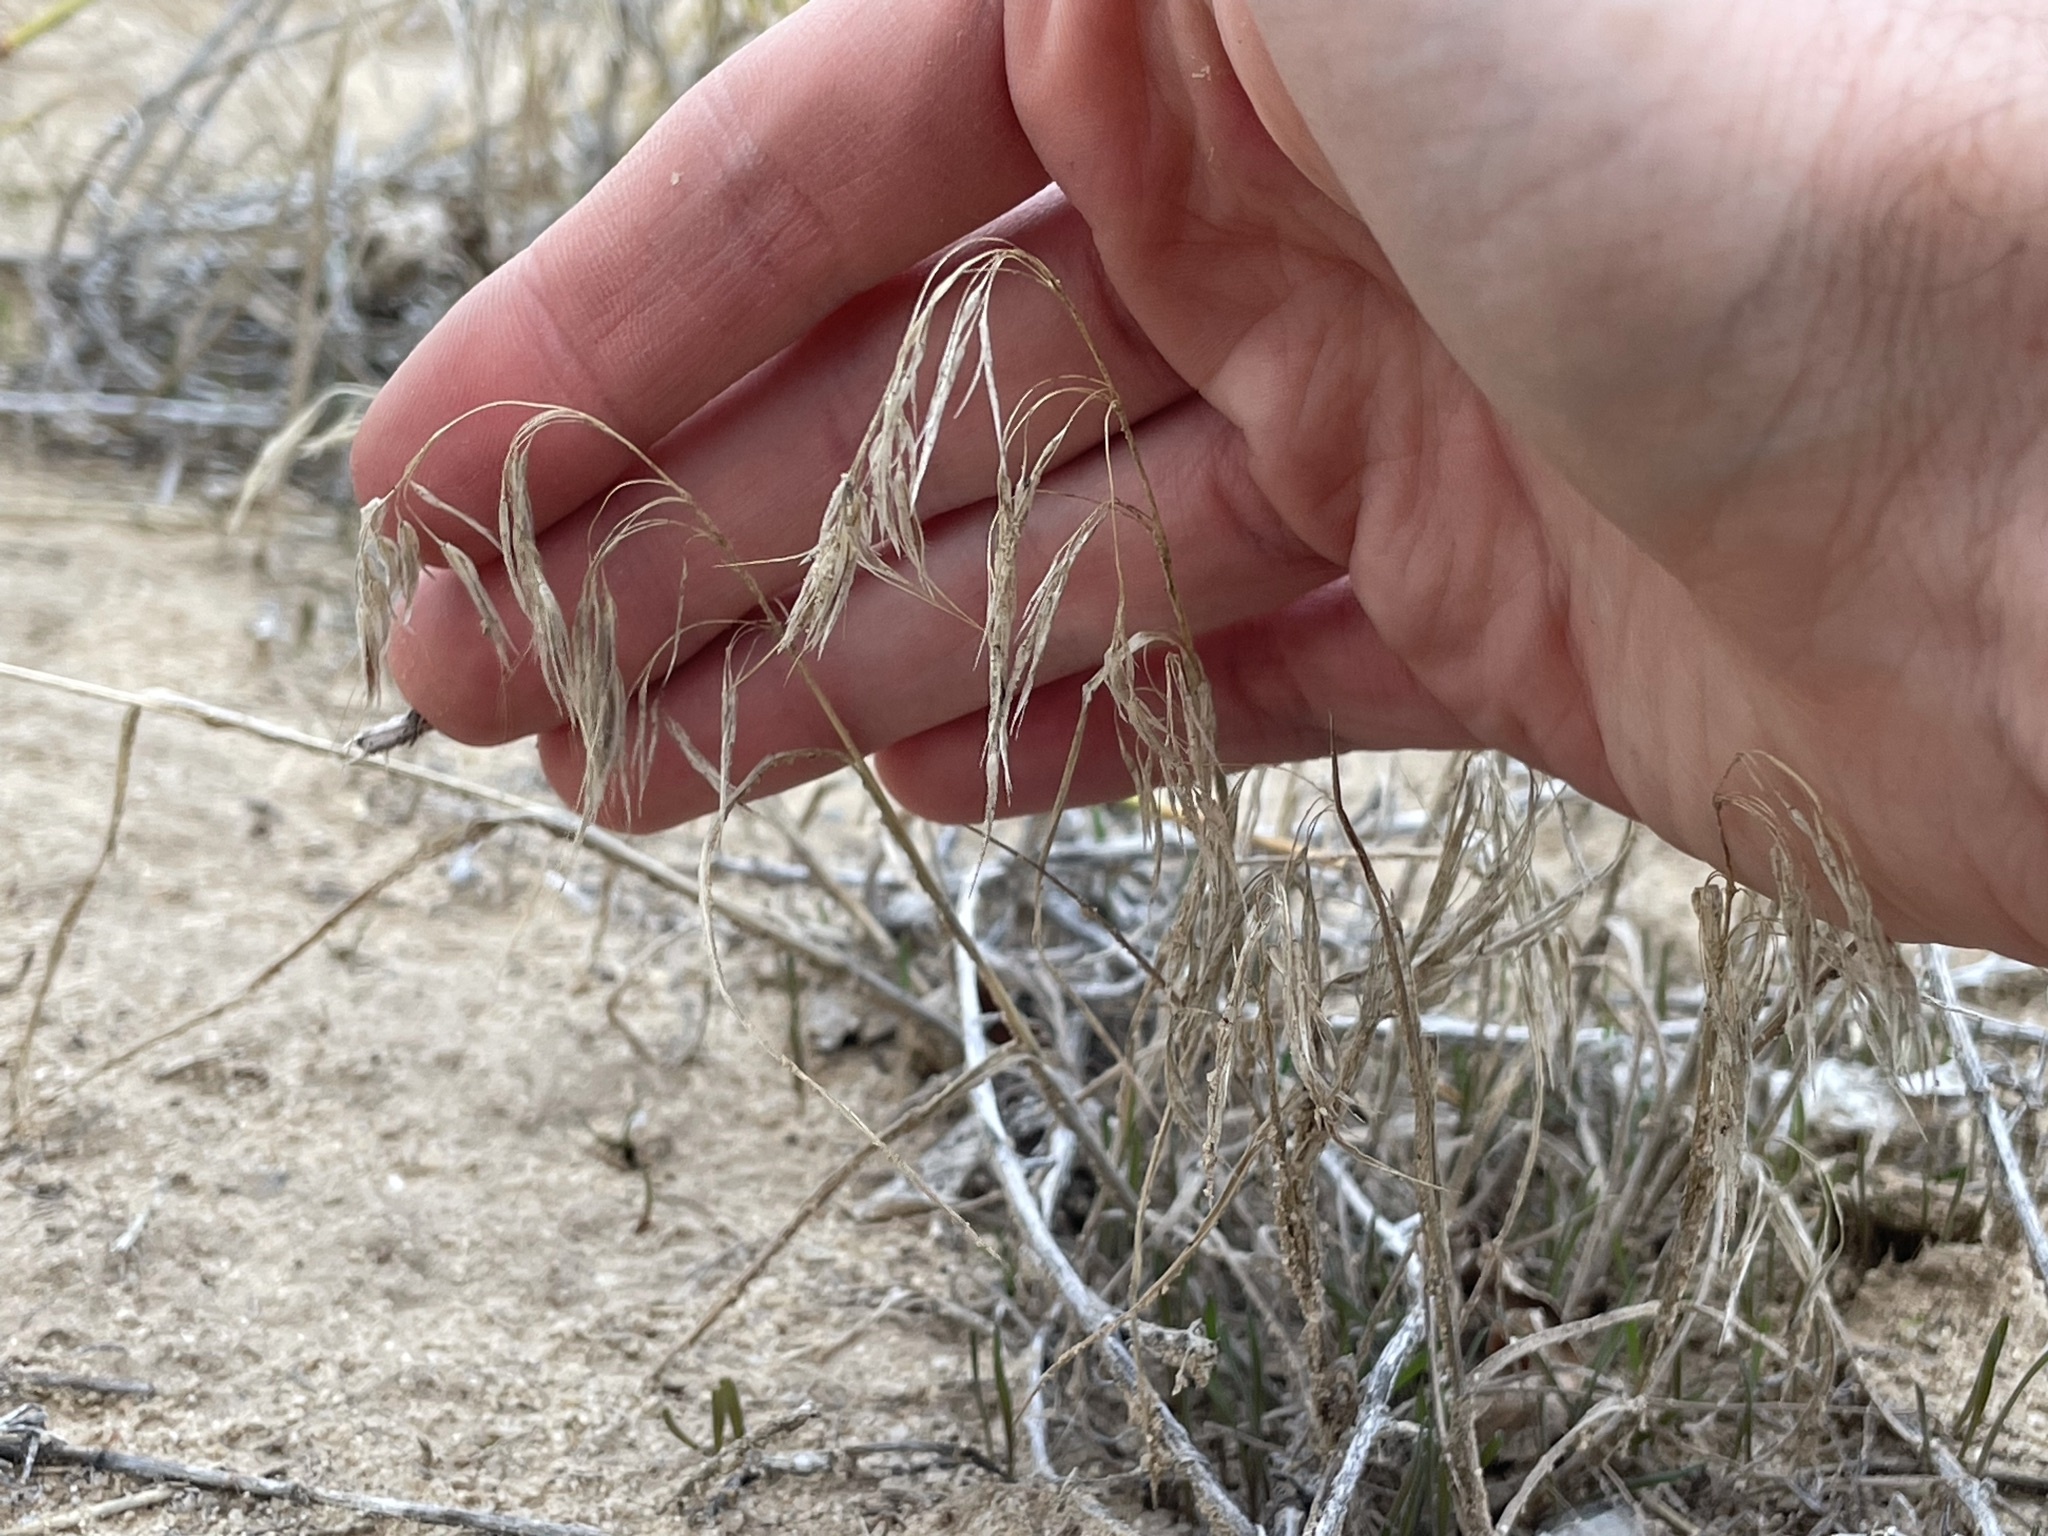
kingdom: Plantae
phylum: Tracheophyta
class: Liliopsida
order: Poales
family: Poaceae
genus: Bromus
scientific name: Bromus tectorum
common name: Cheatgrass
